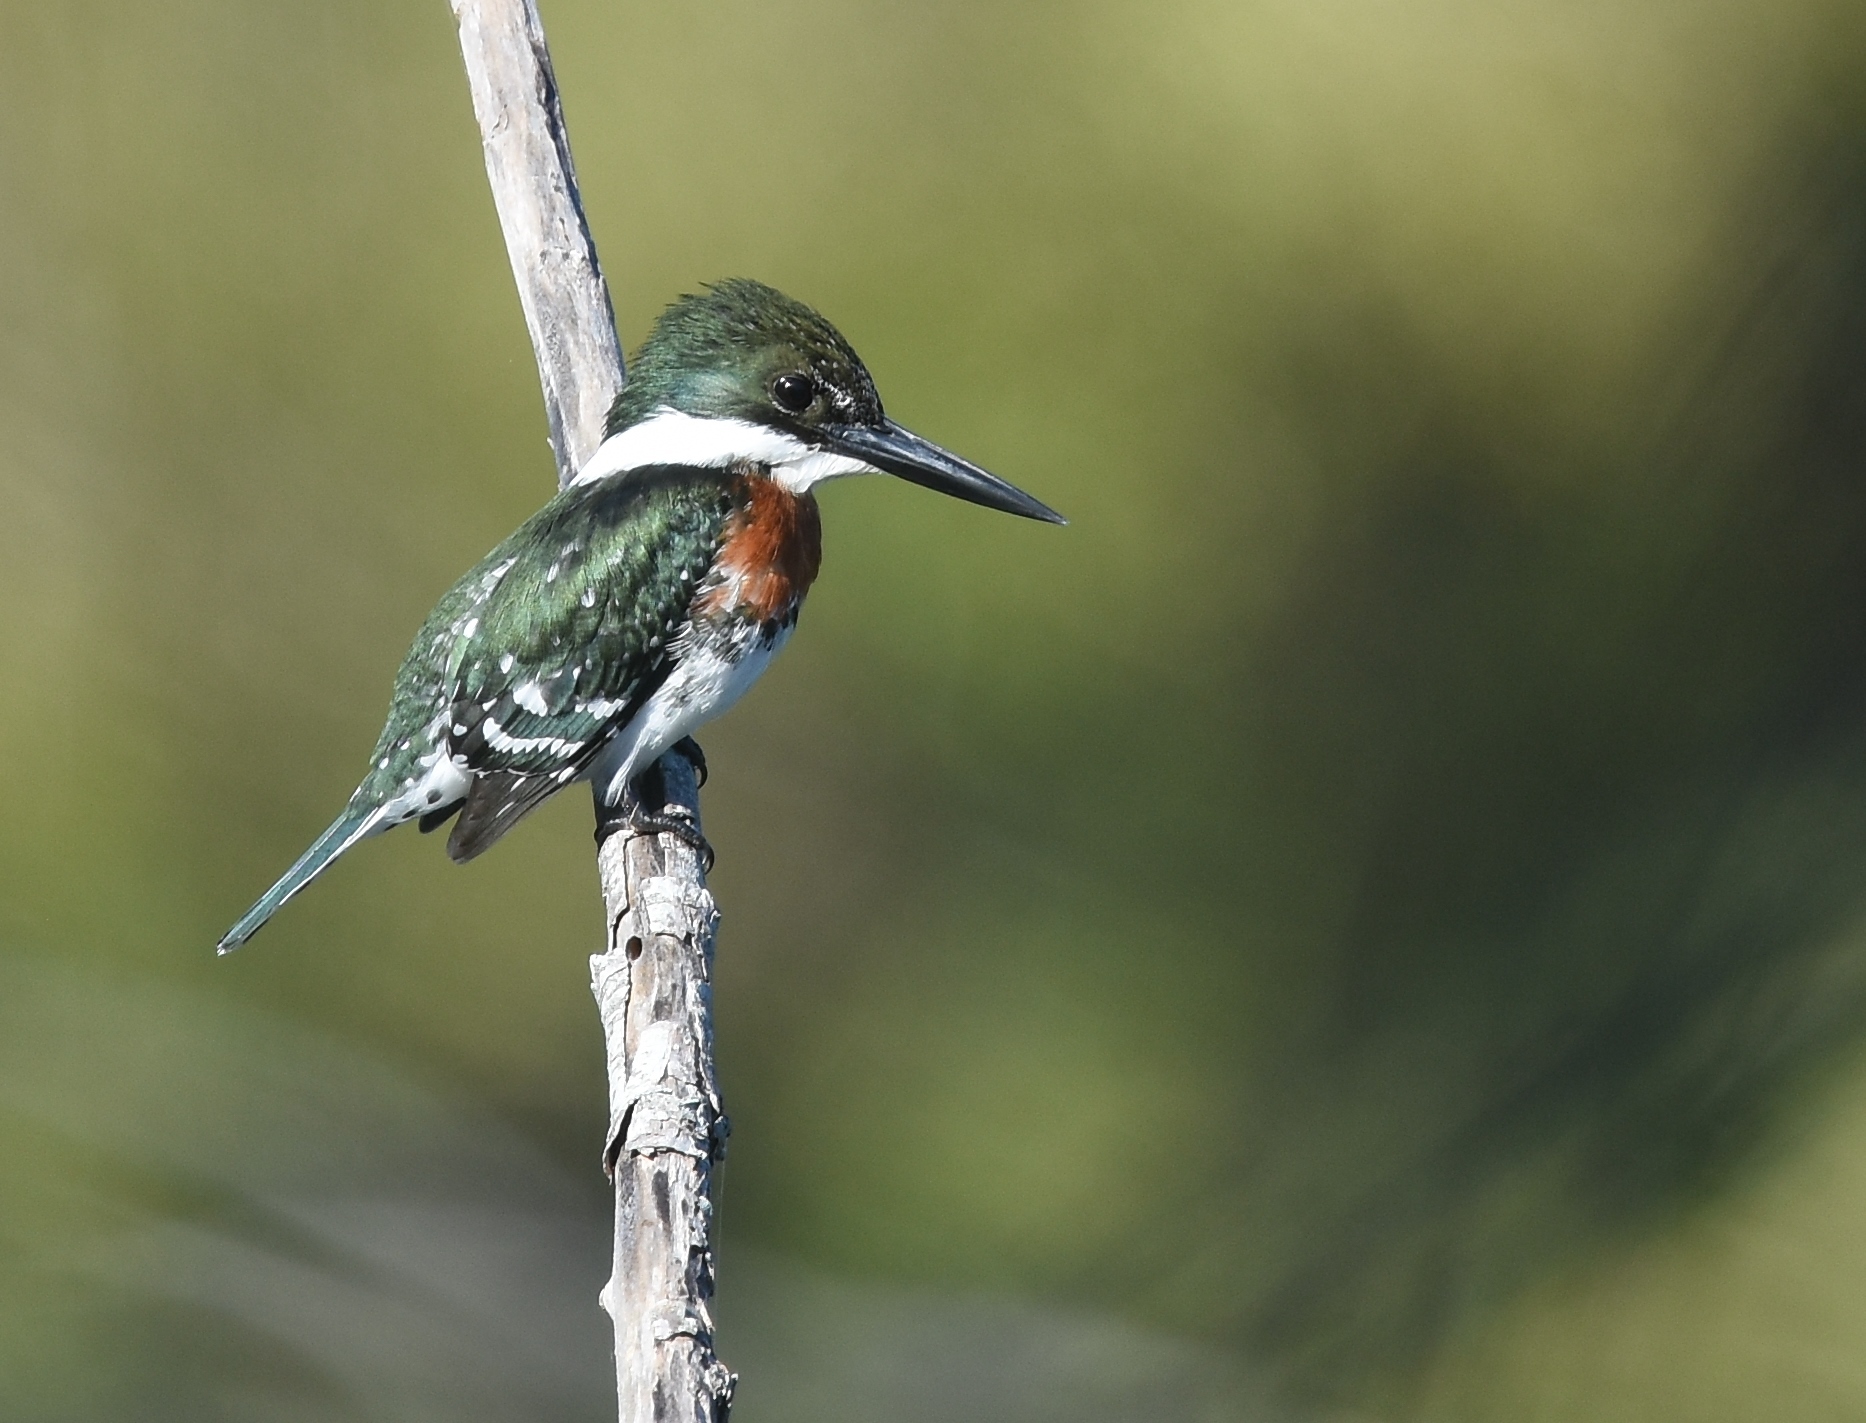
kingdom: Animalia
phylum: Chordata
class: Aves
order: Coraciiformes
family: Alcedinidae
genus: Chloroceryle
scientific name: Chloroceryle americana
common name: Green kingfisher
